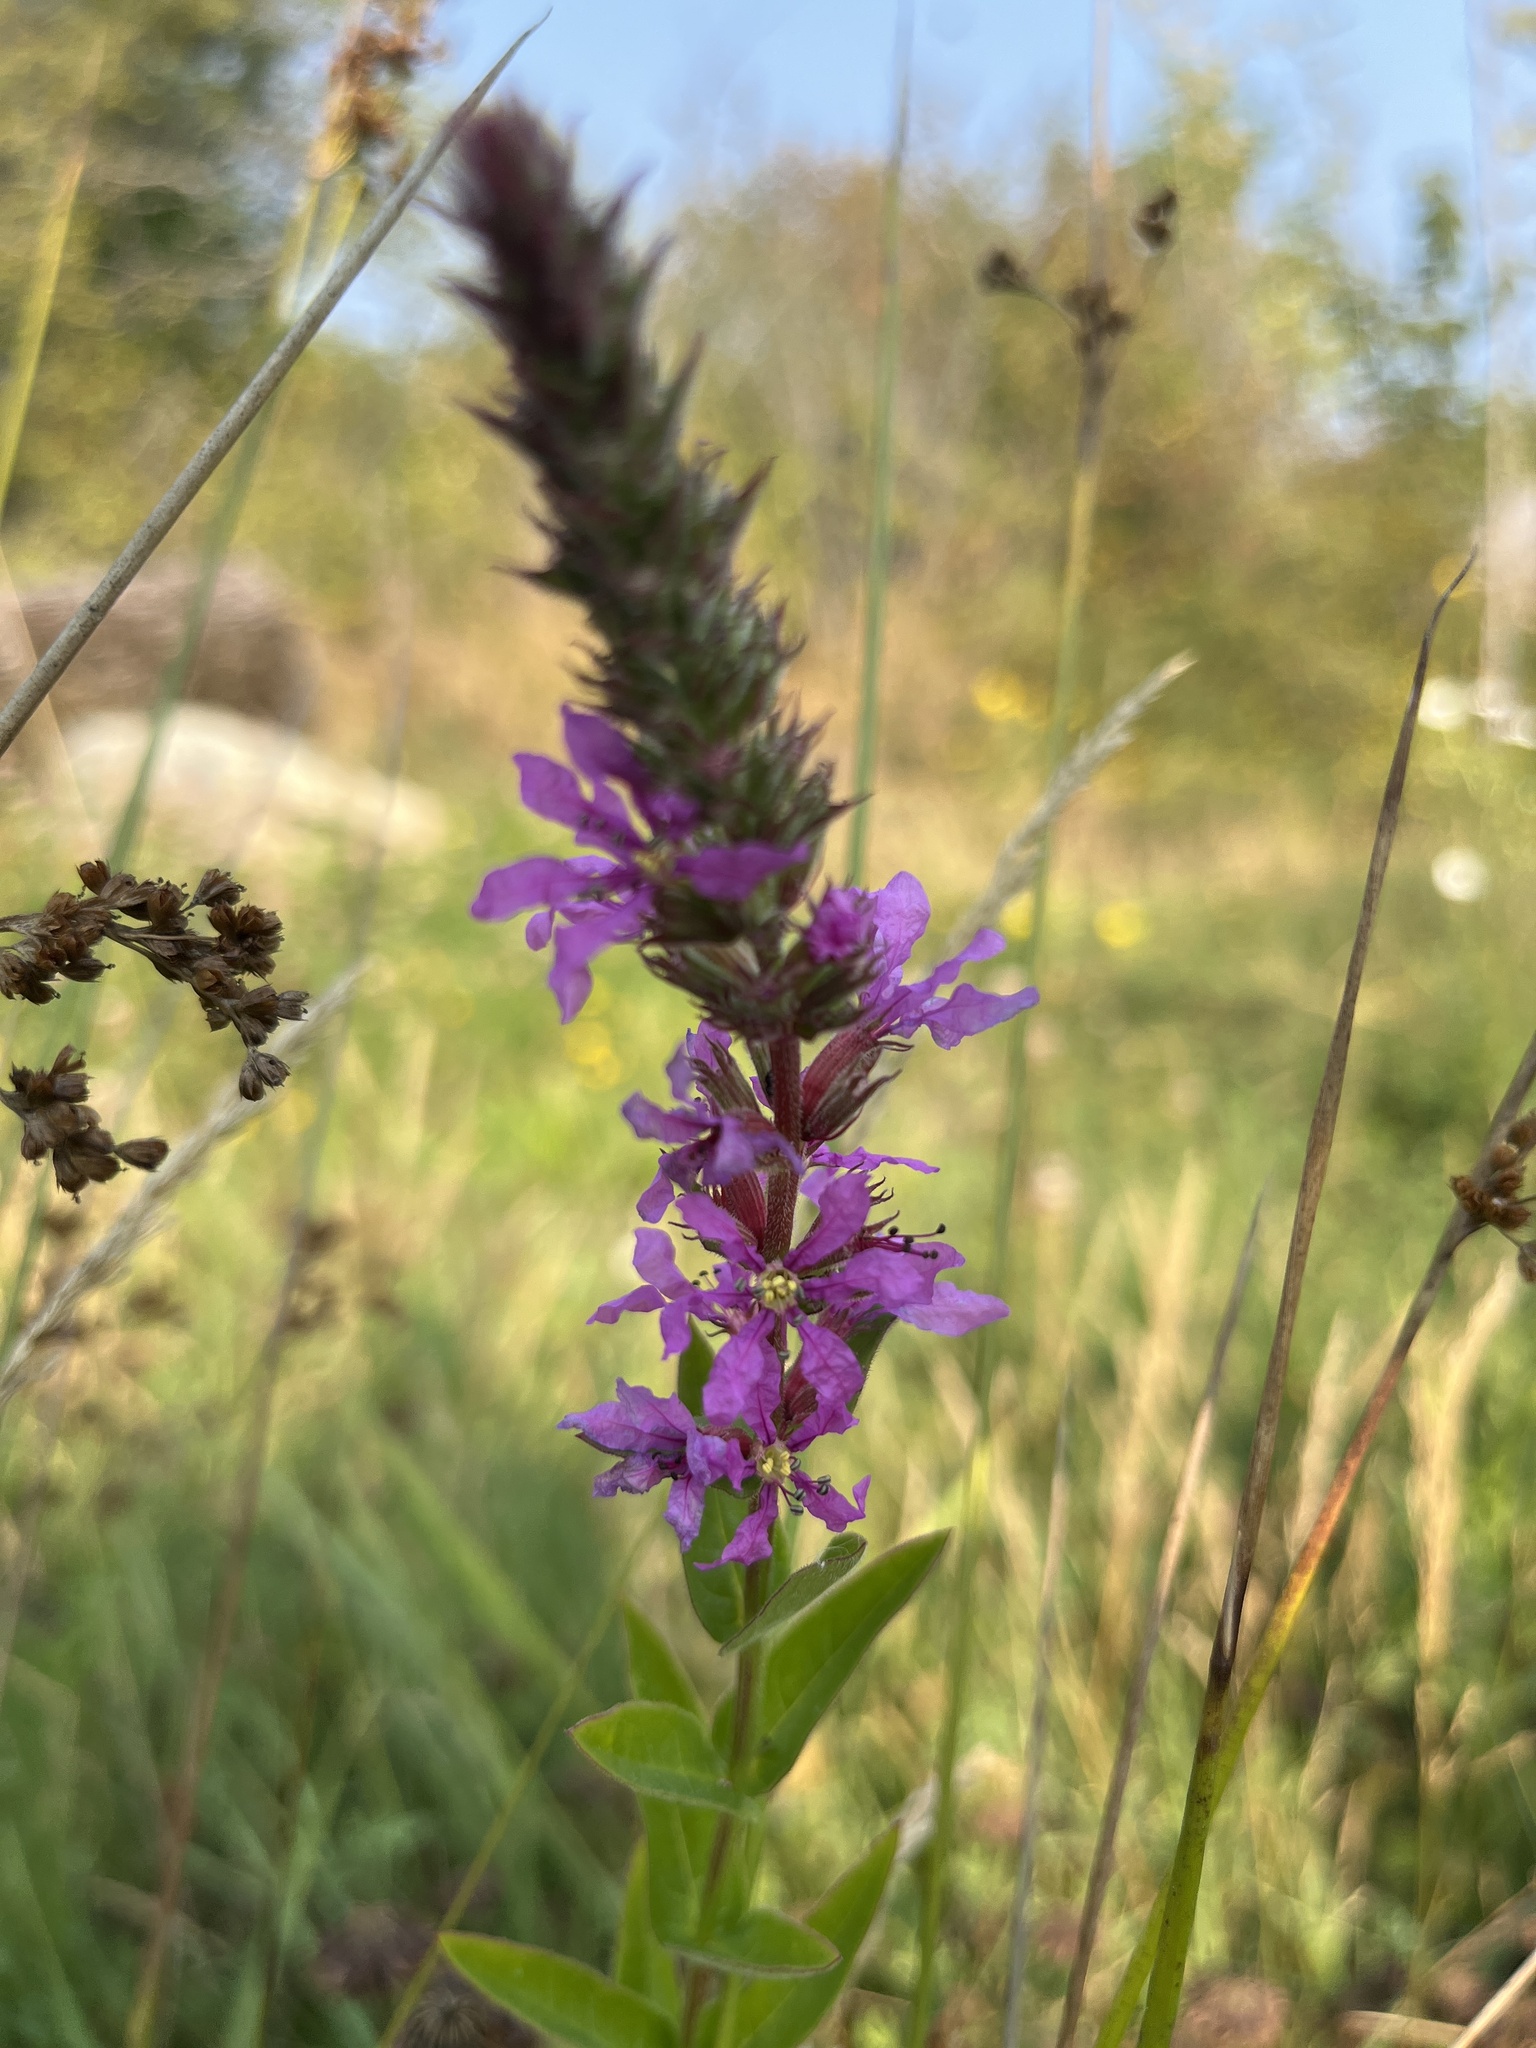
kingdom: Plantae
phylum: Tracheophyta
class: Magnoliopsida
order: Myrtales
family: Lythraceae
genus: Lythrum
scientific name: Lythrum salicaria
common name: Purple loosestrife
